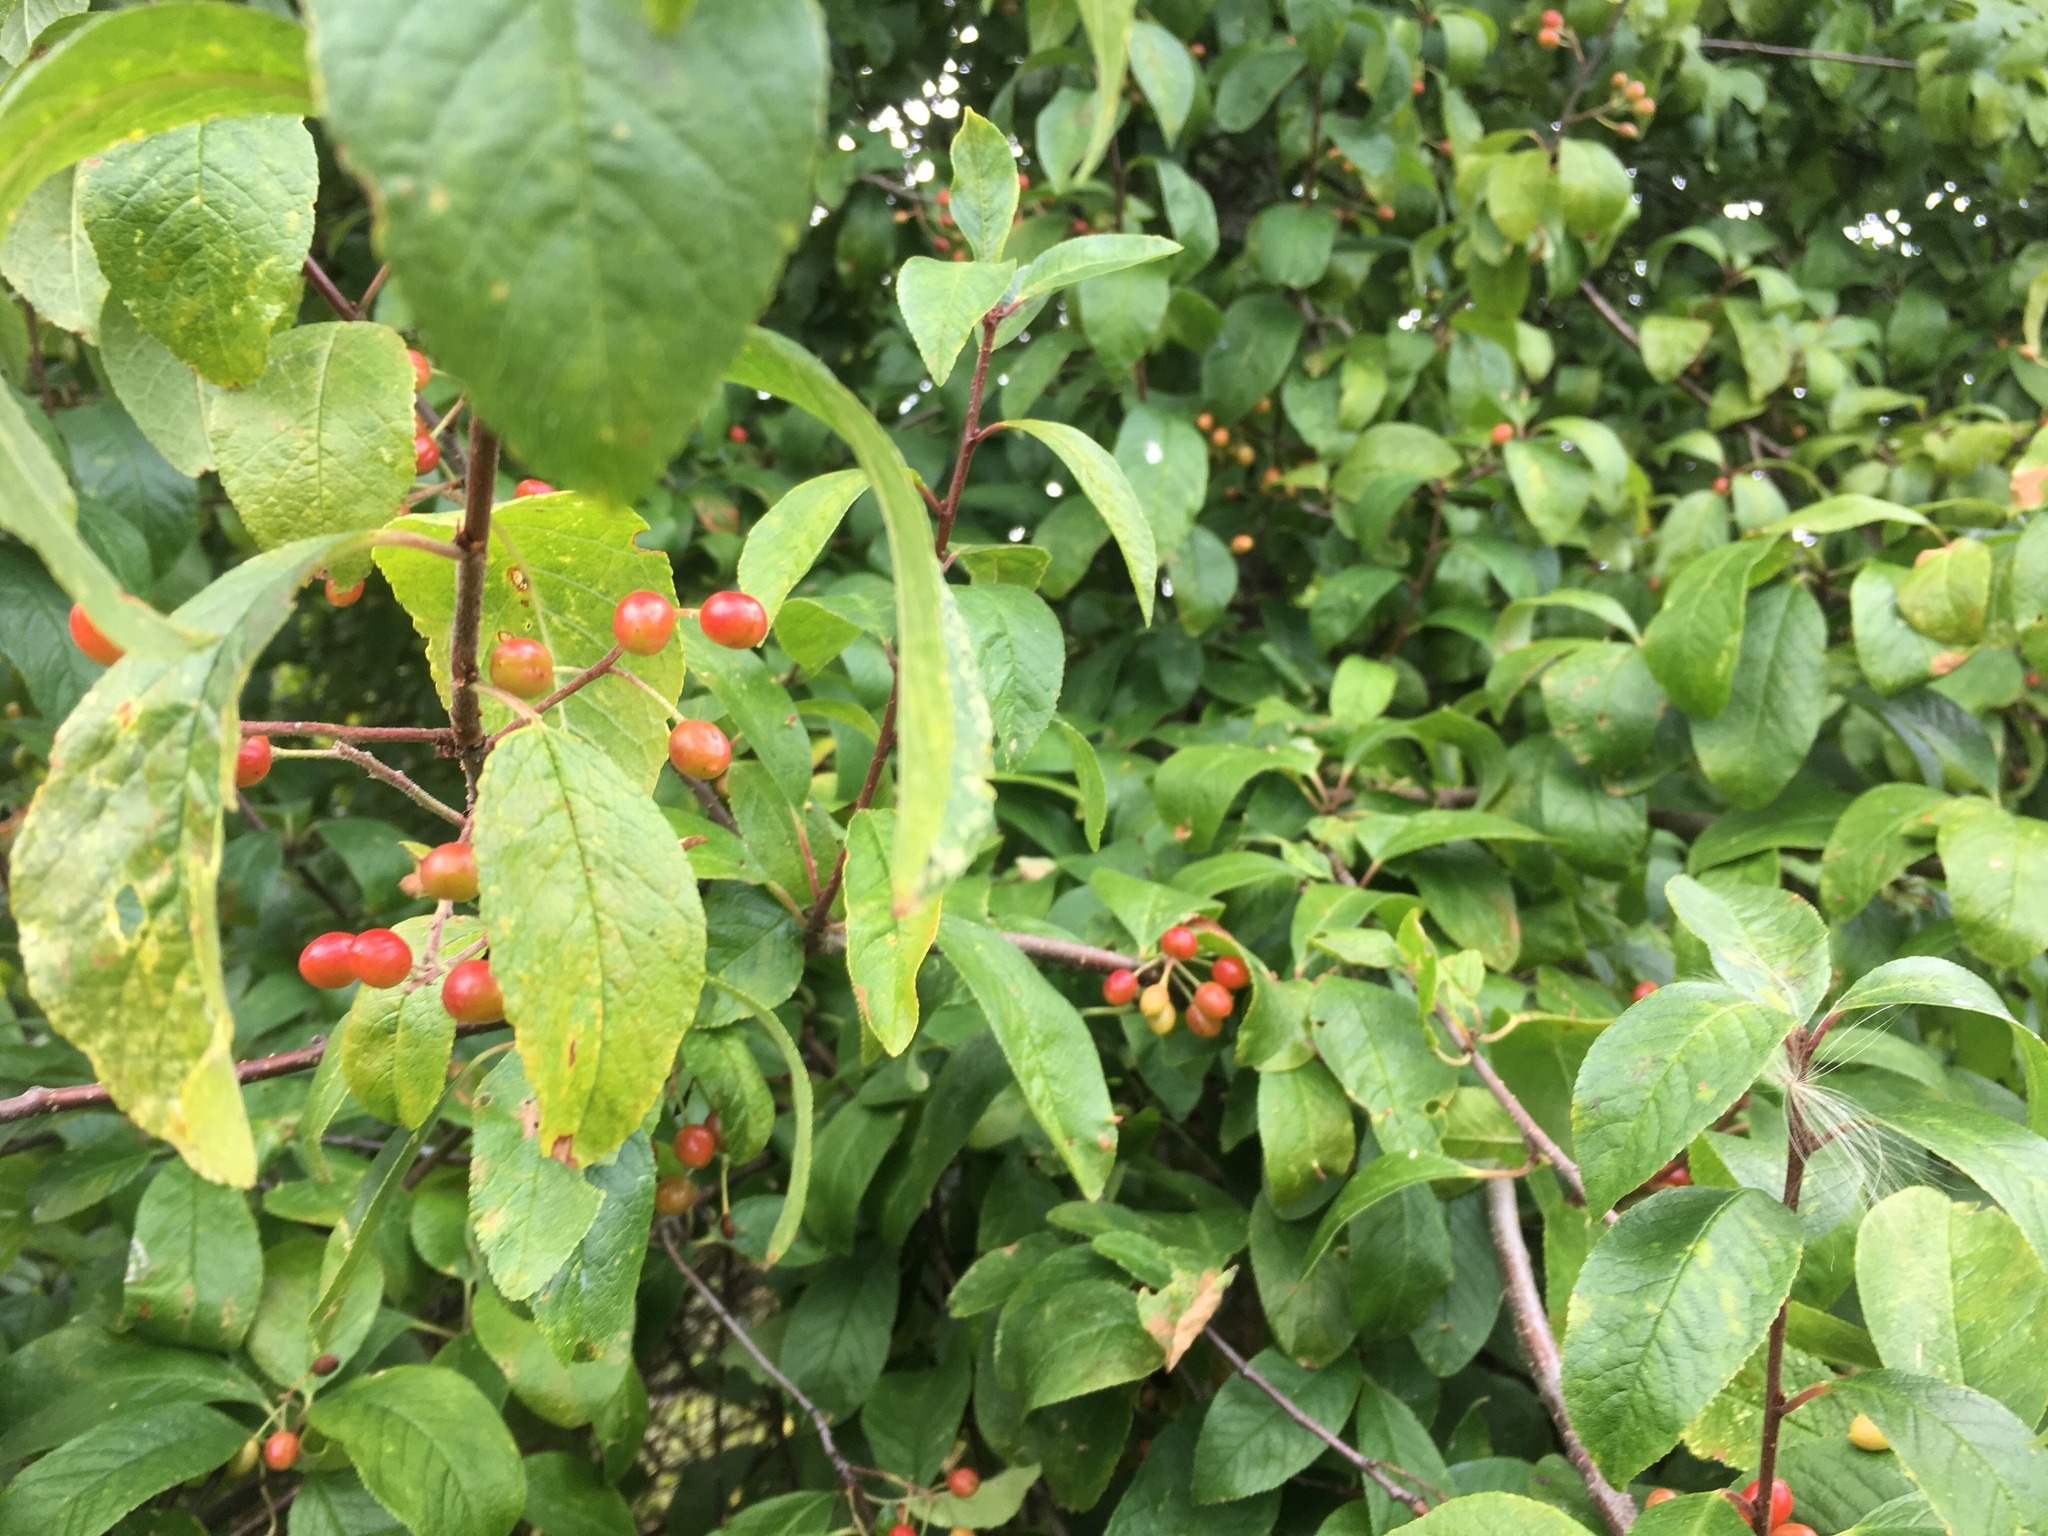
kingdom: Plantae
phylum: Tracheophyta
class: Magnoliopsida
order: Rosales
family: Rosaceae
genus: Prunus
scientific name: Prunus emarginata
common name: Bitter cherry
